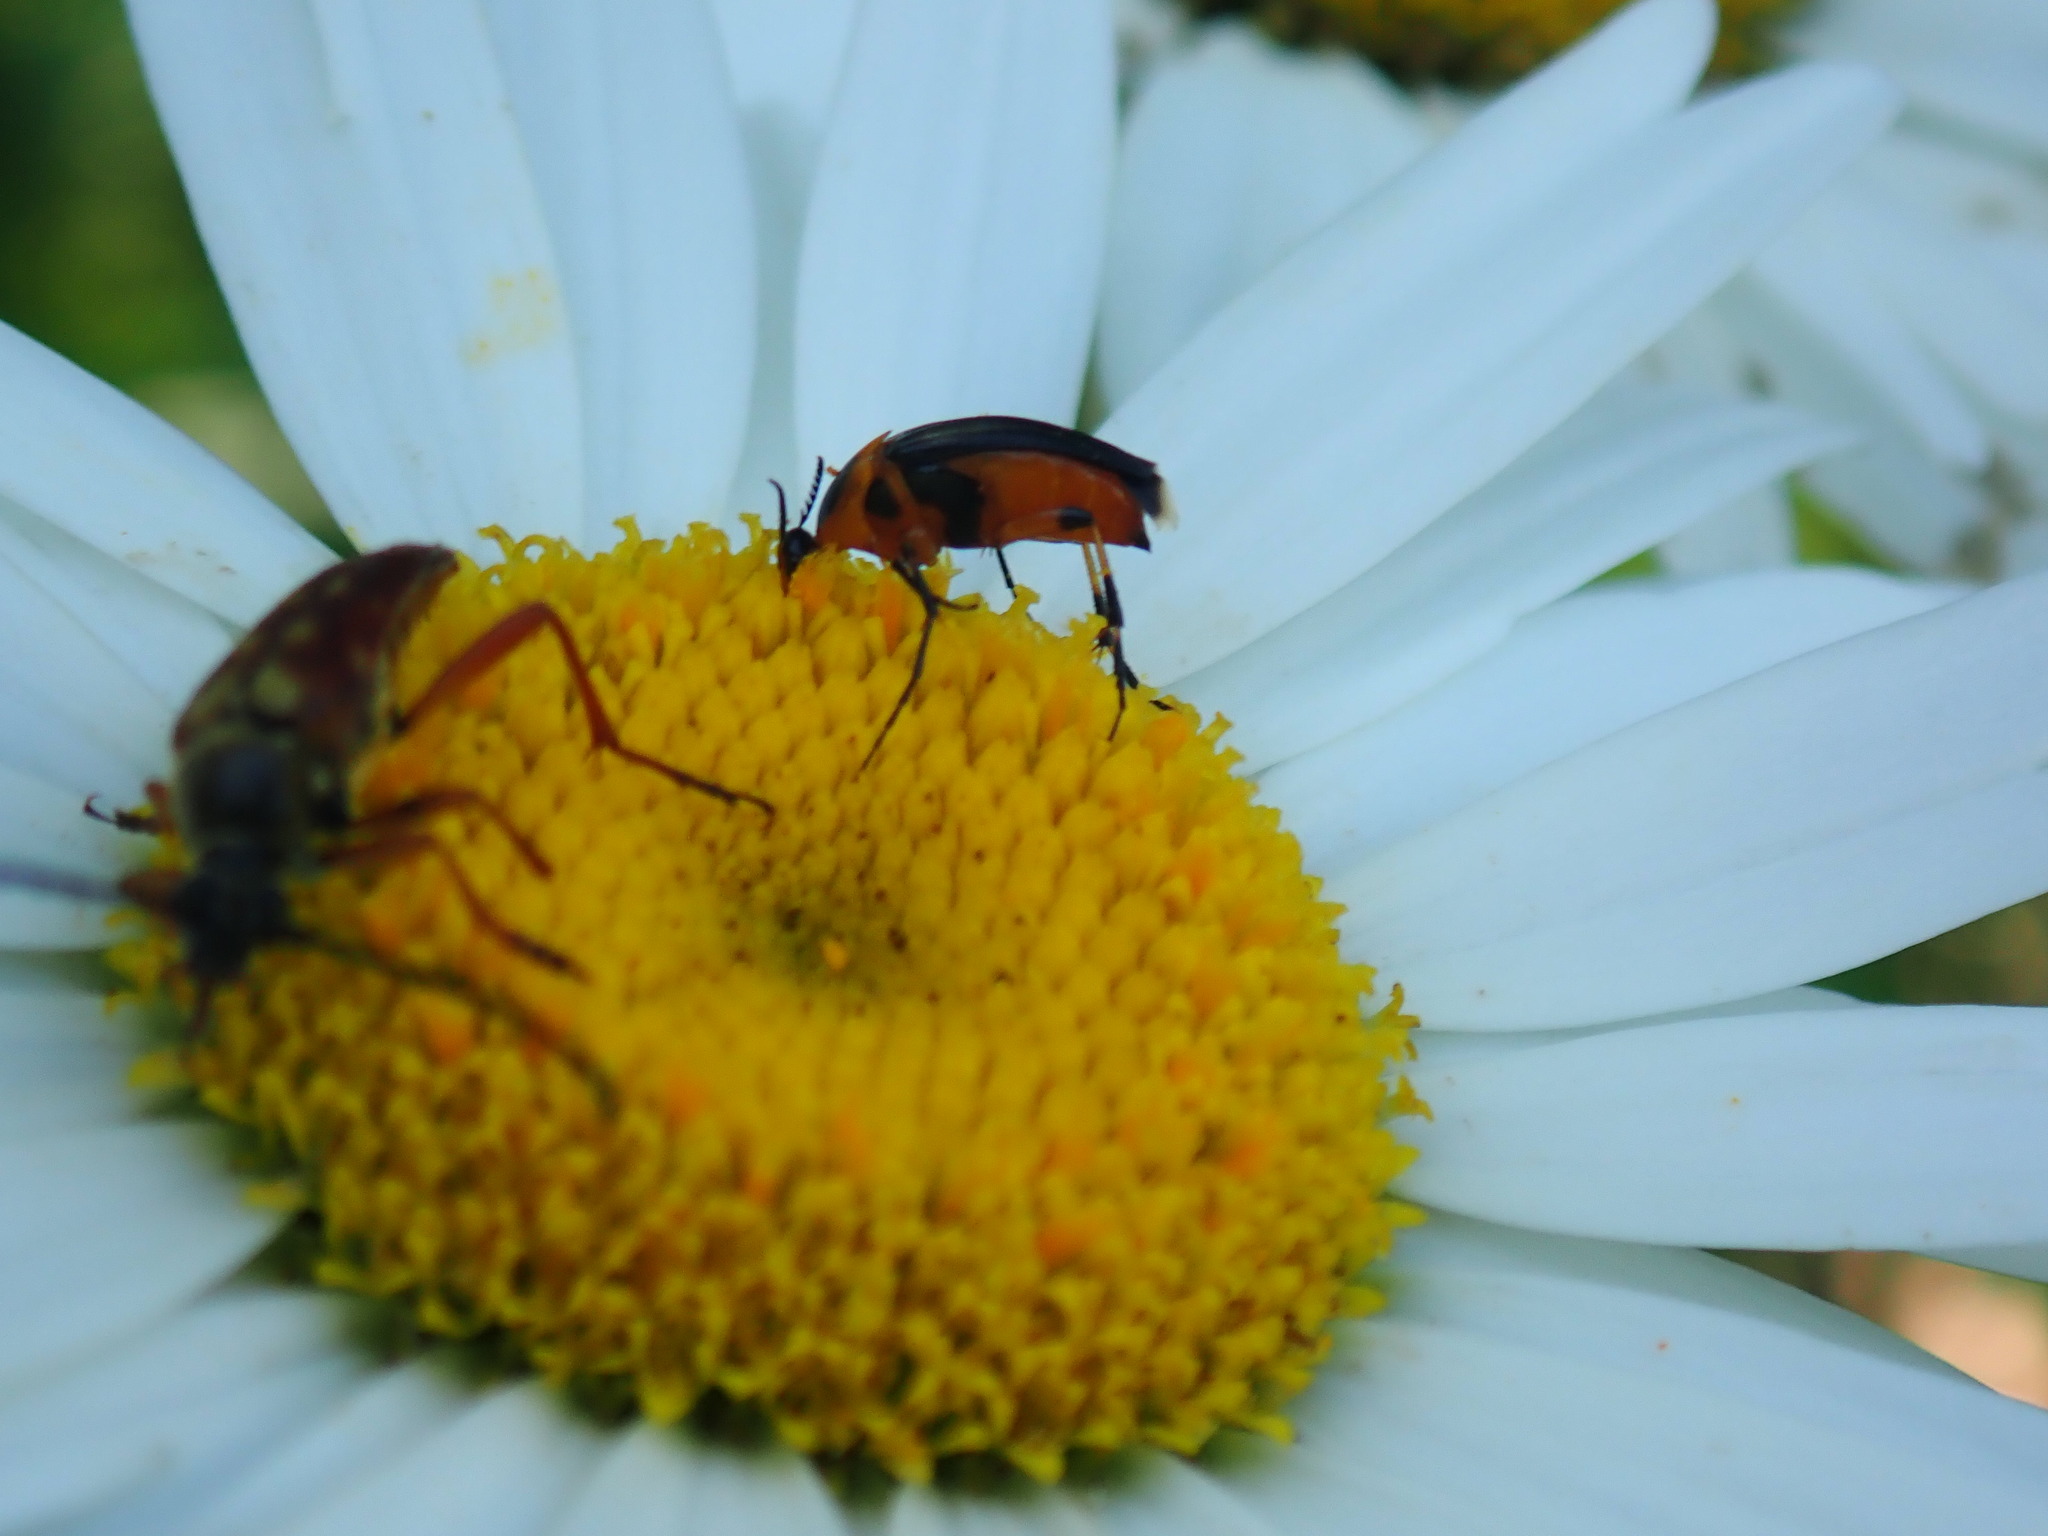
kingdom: Animalia
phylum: Arthropoda
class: Insecta
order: Coleoptera
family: Ripiphoridae
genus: Macrosiagon
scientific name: Macrosiagon limbatum
